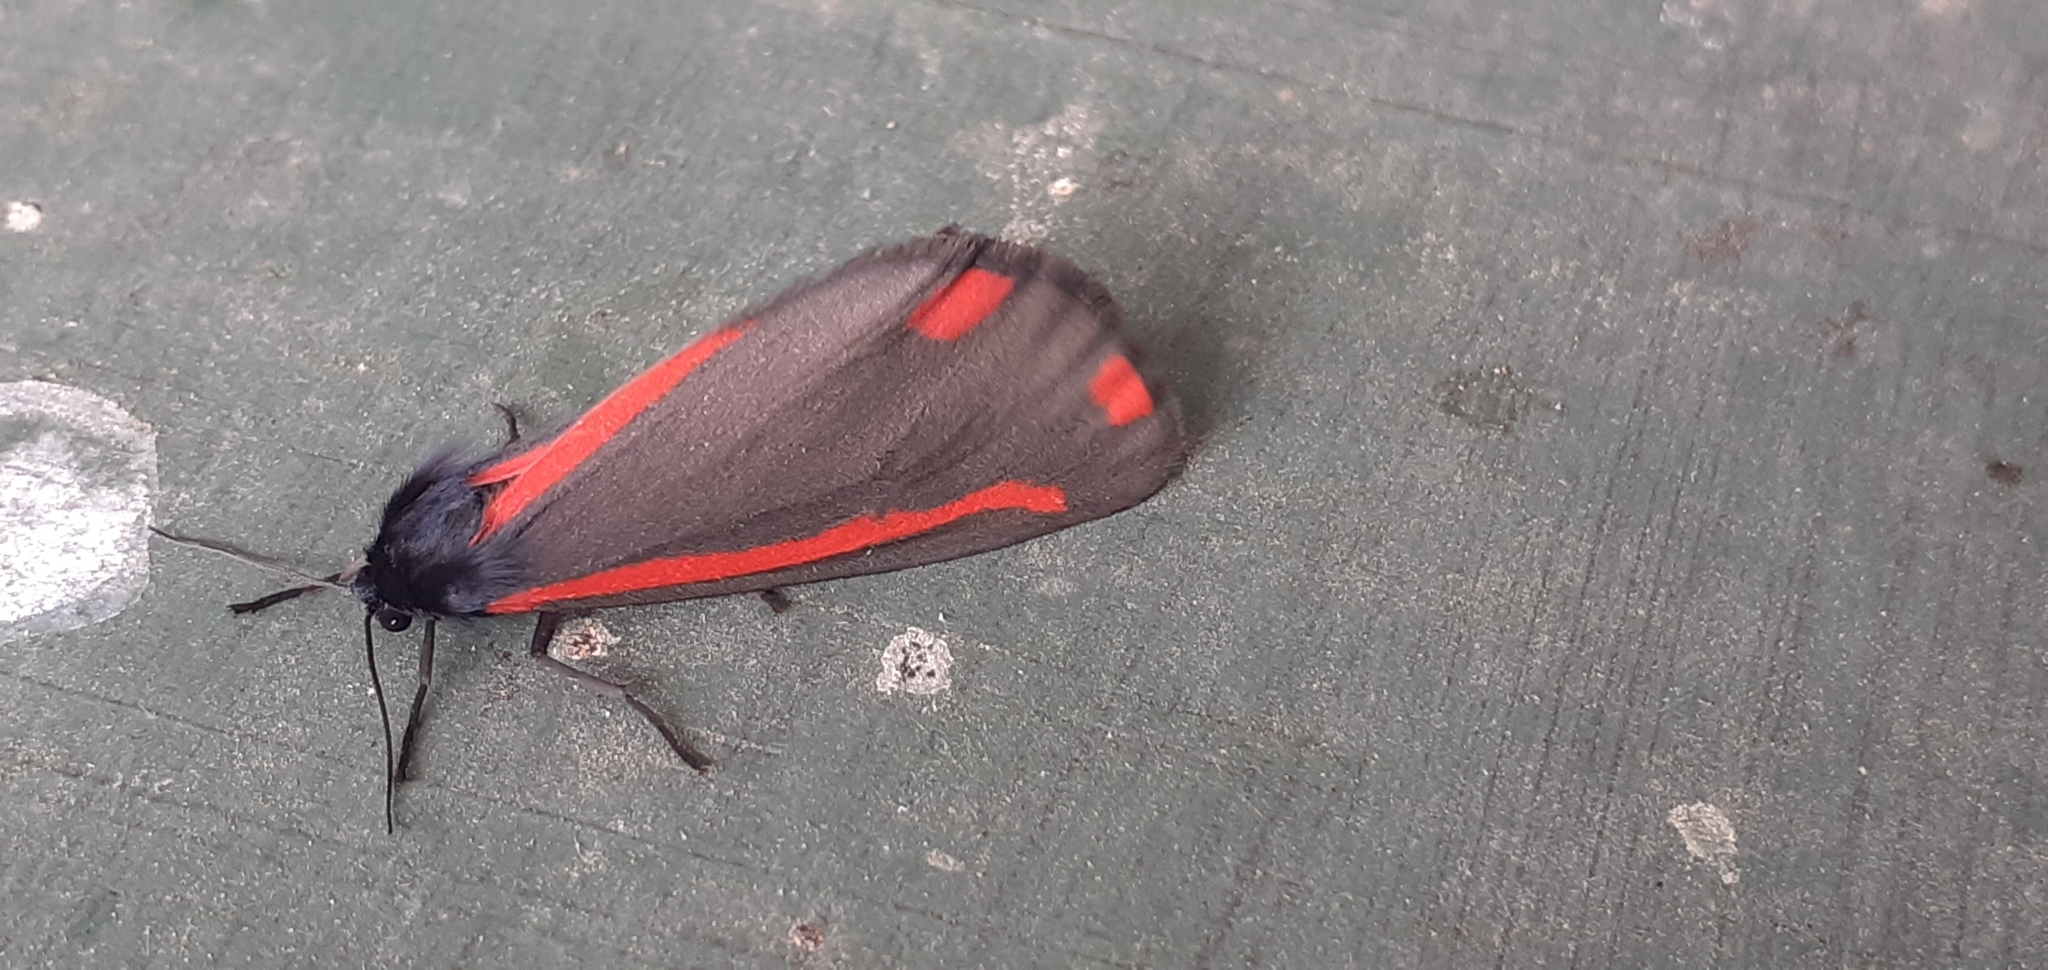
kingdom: Animalia
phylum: Arthropoda
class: Insecta
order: Lepidoptera
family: Erebidae
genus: Tyria
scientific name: Tyria jacobaeae
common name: Cinnabar
